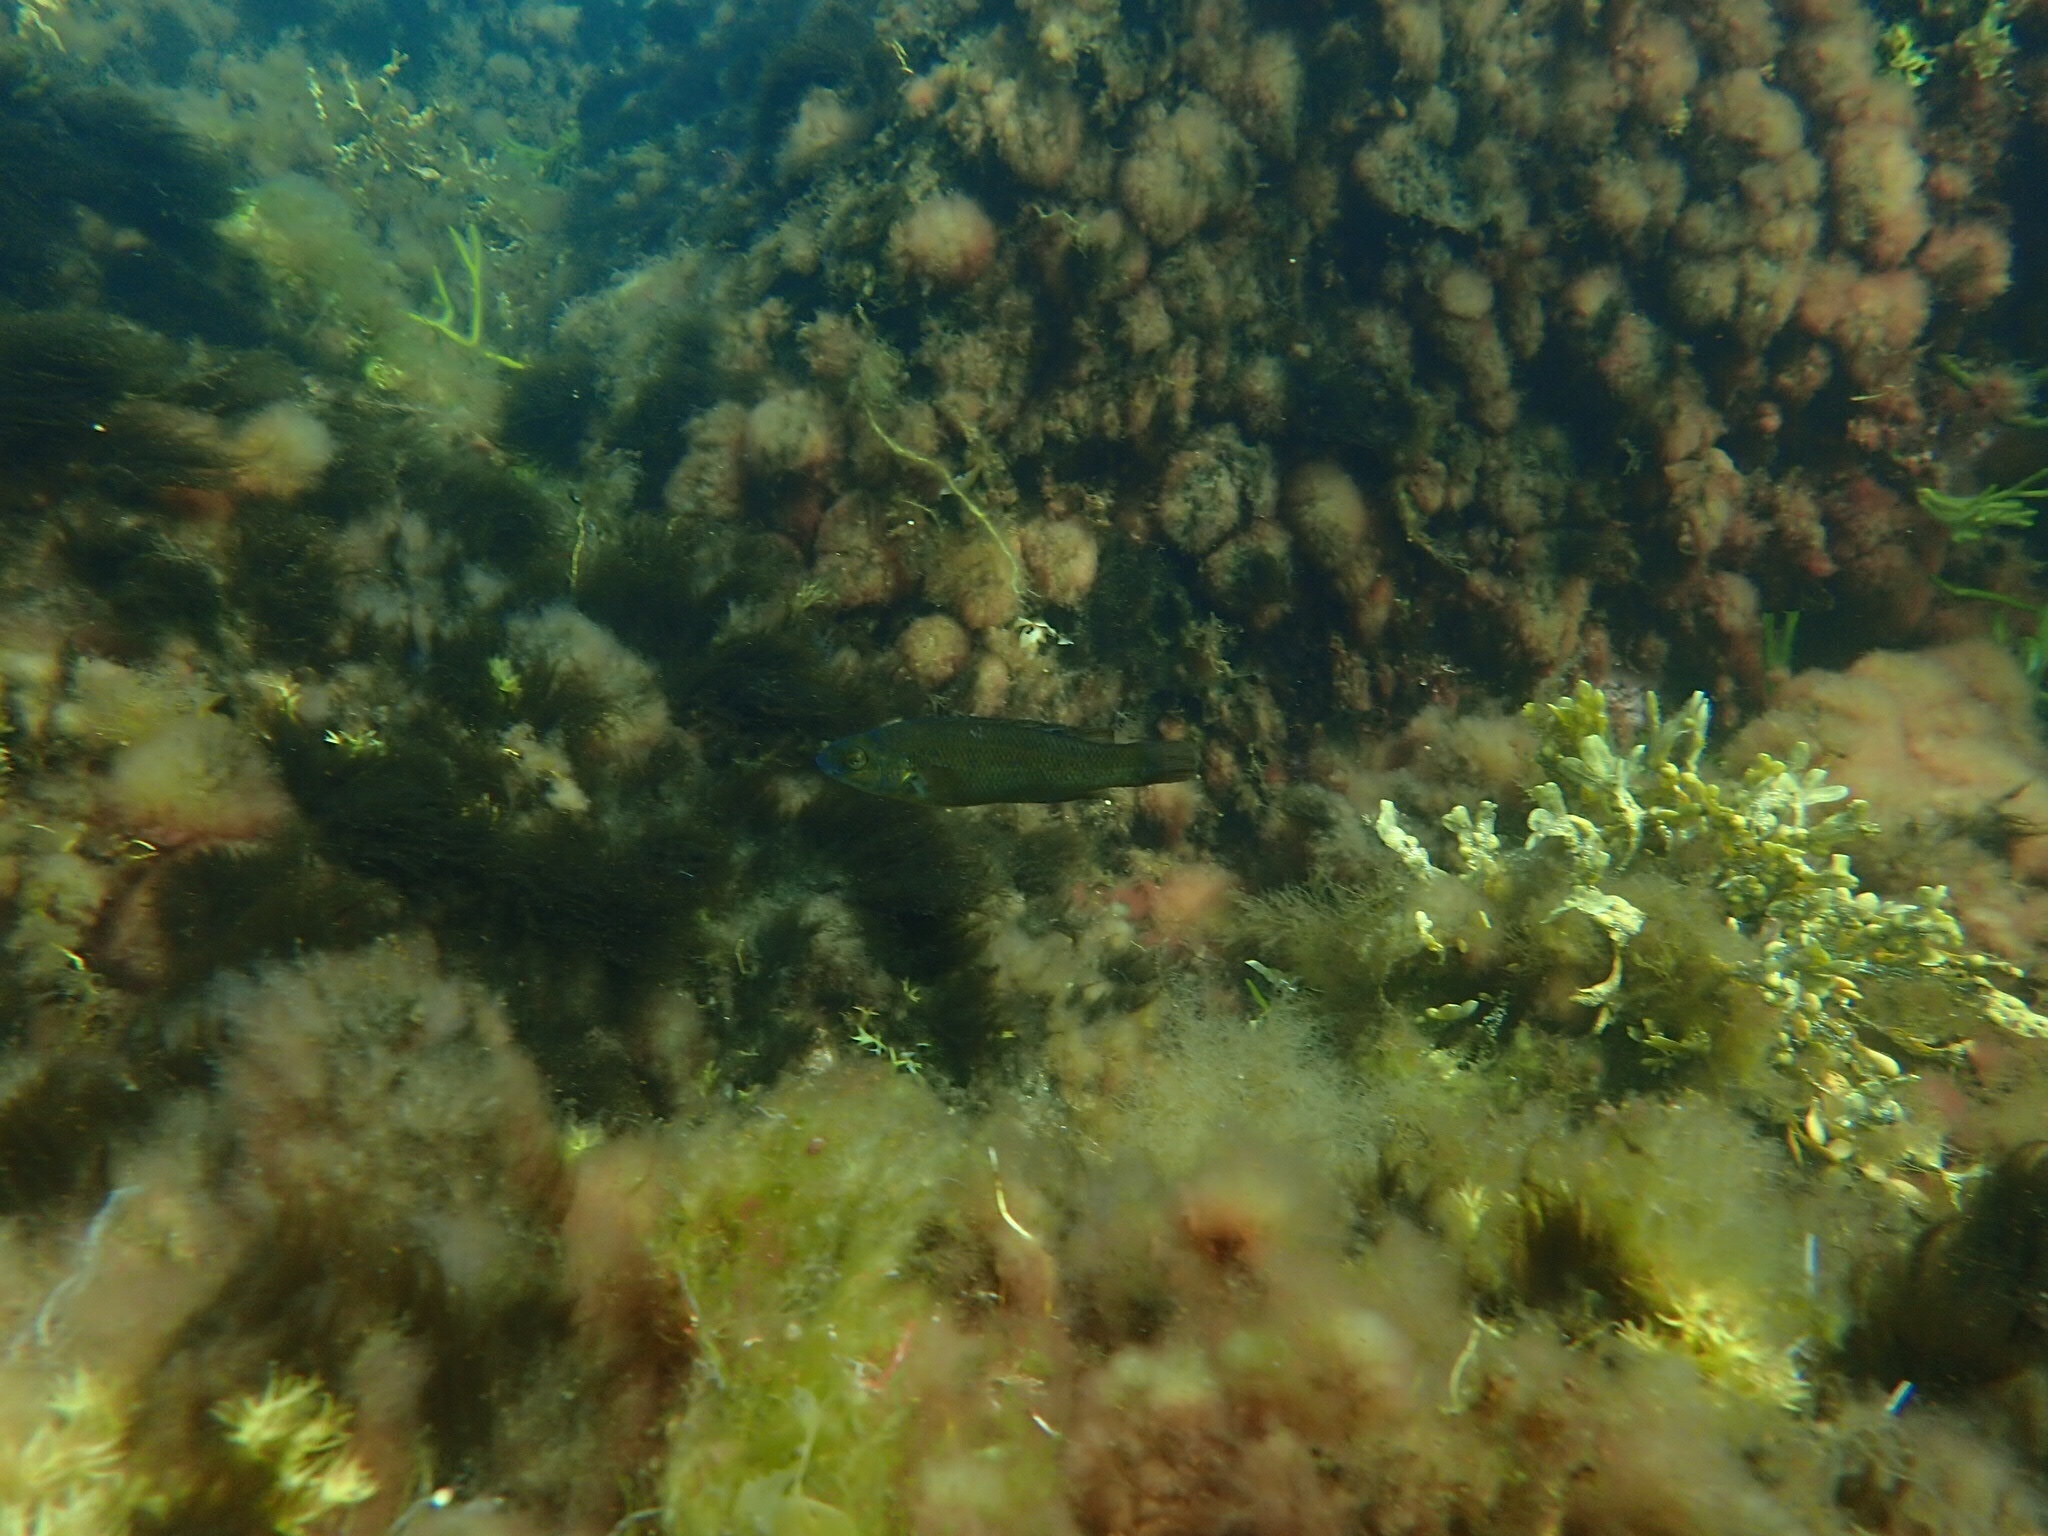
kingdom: Animalia
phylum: Chordata
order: Perciformes
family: Labridae
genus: Tautogolabrus
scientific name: Tautogolabrus adspersus
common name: Cunner
